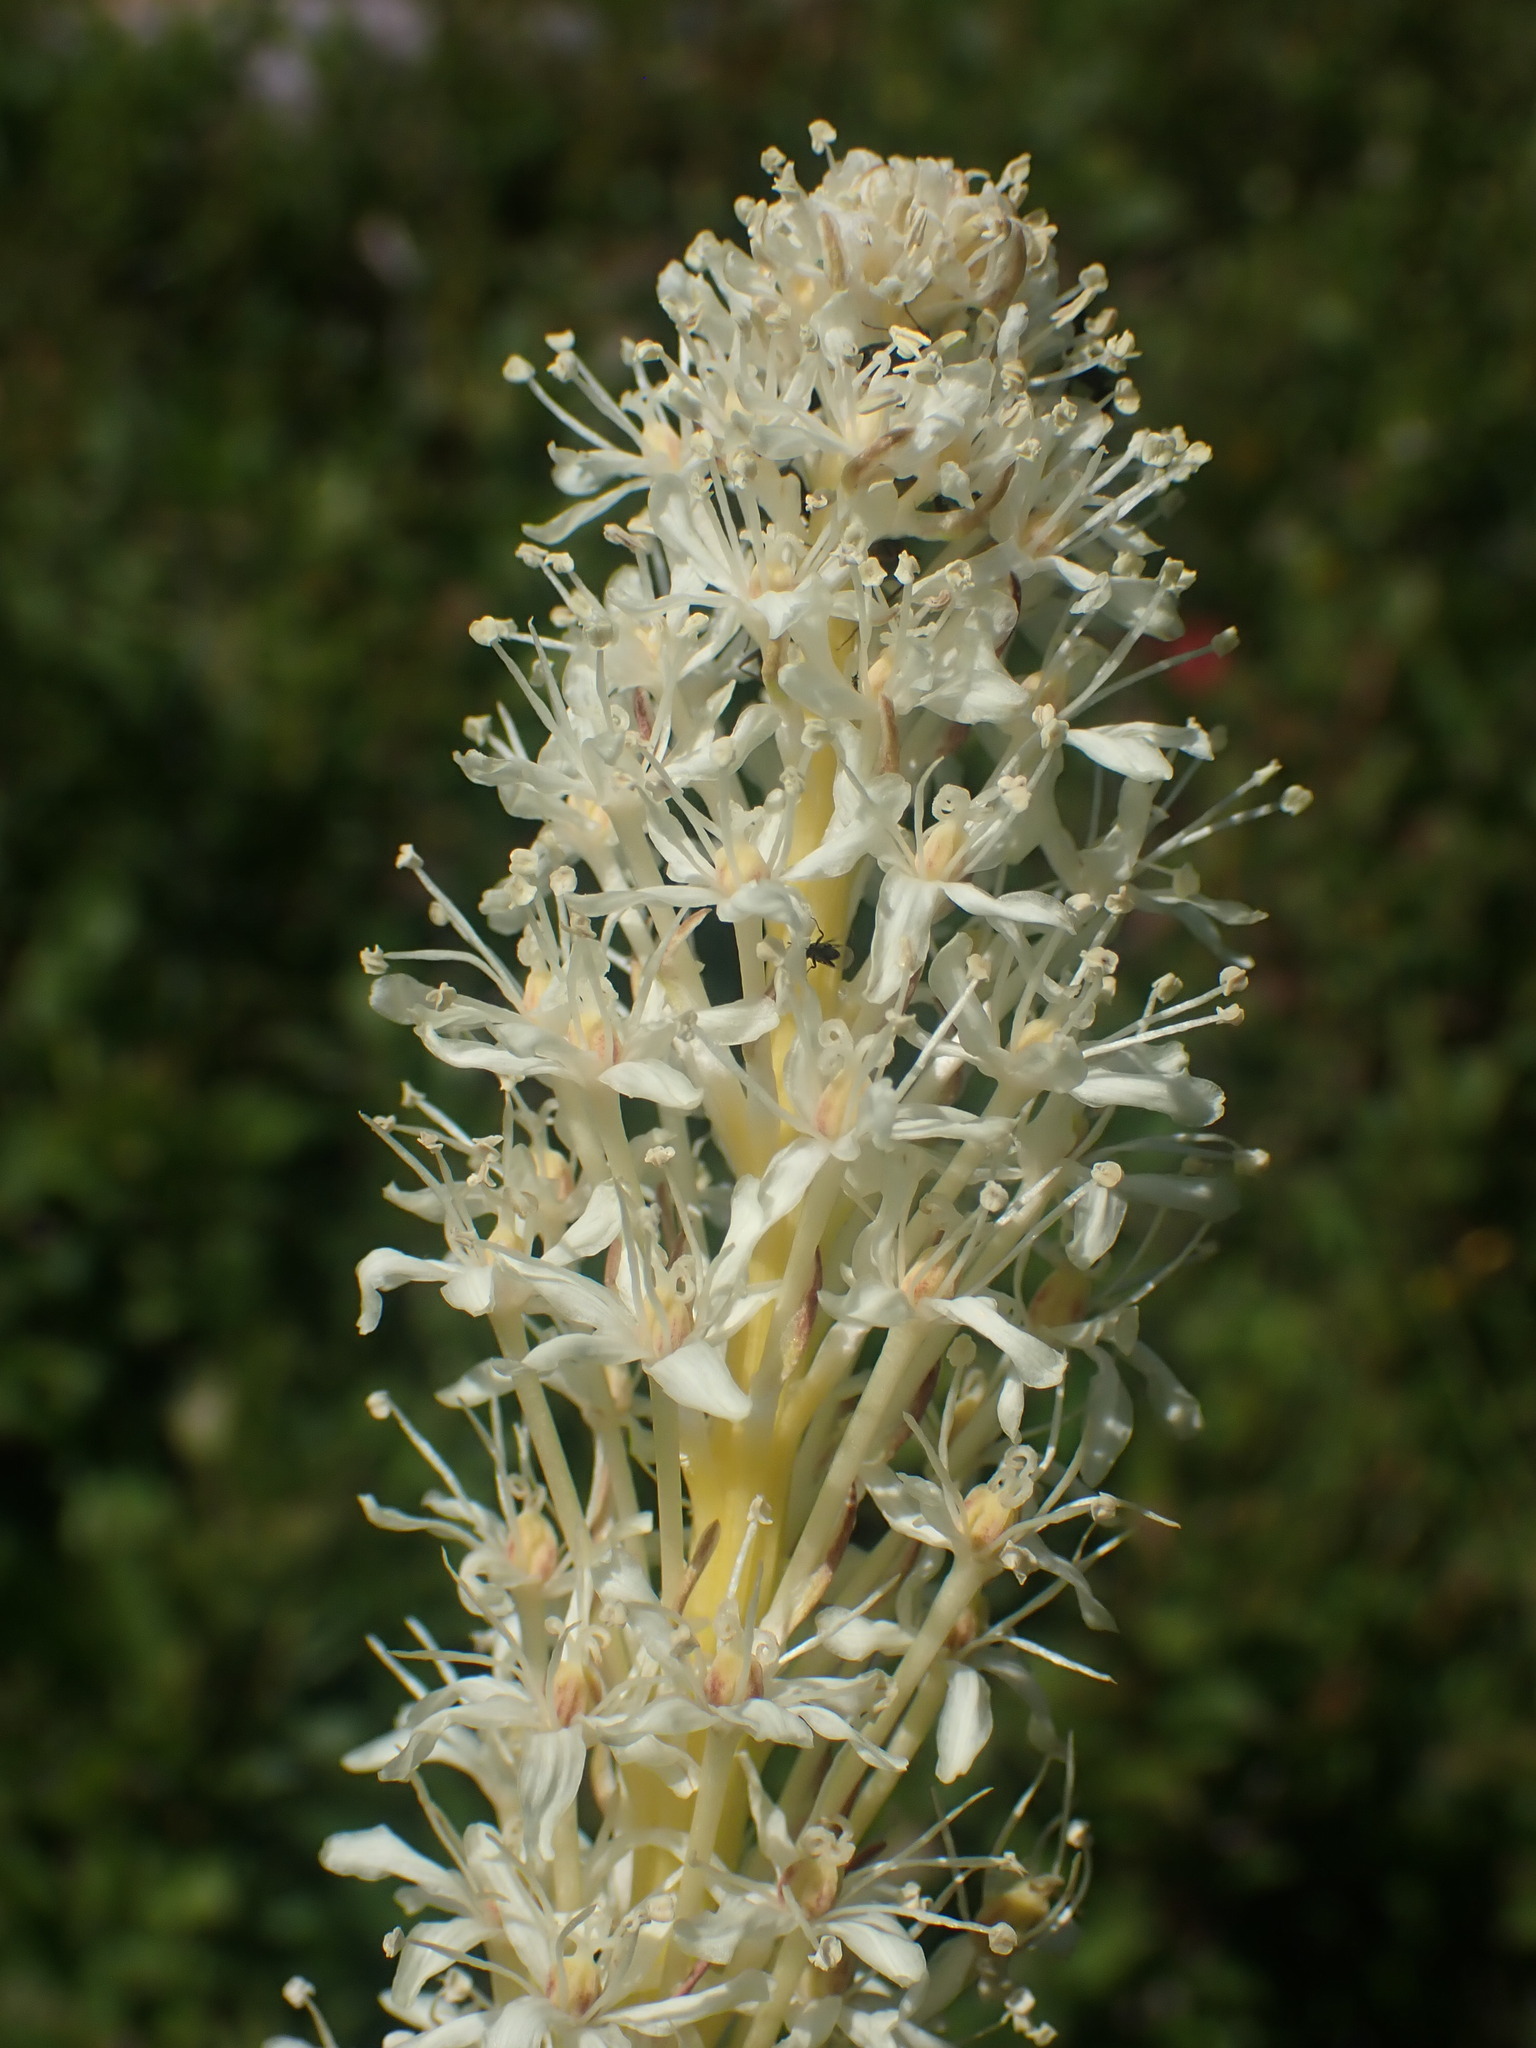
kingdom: Plantae
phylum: Tracheophyta
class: Liliopsida
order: Liliales
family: Melanthiaceae
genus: Xerophyllum
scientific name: Xerophyllum tenax
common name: Bear-grass
